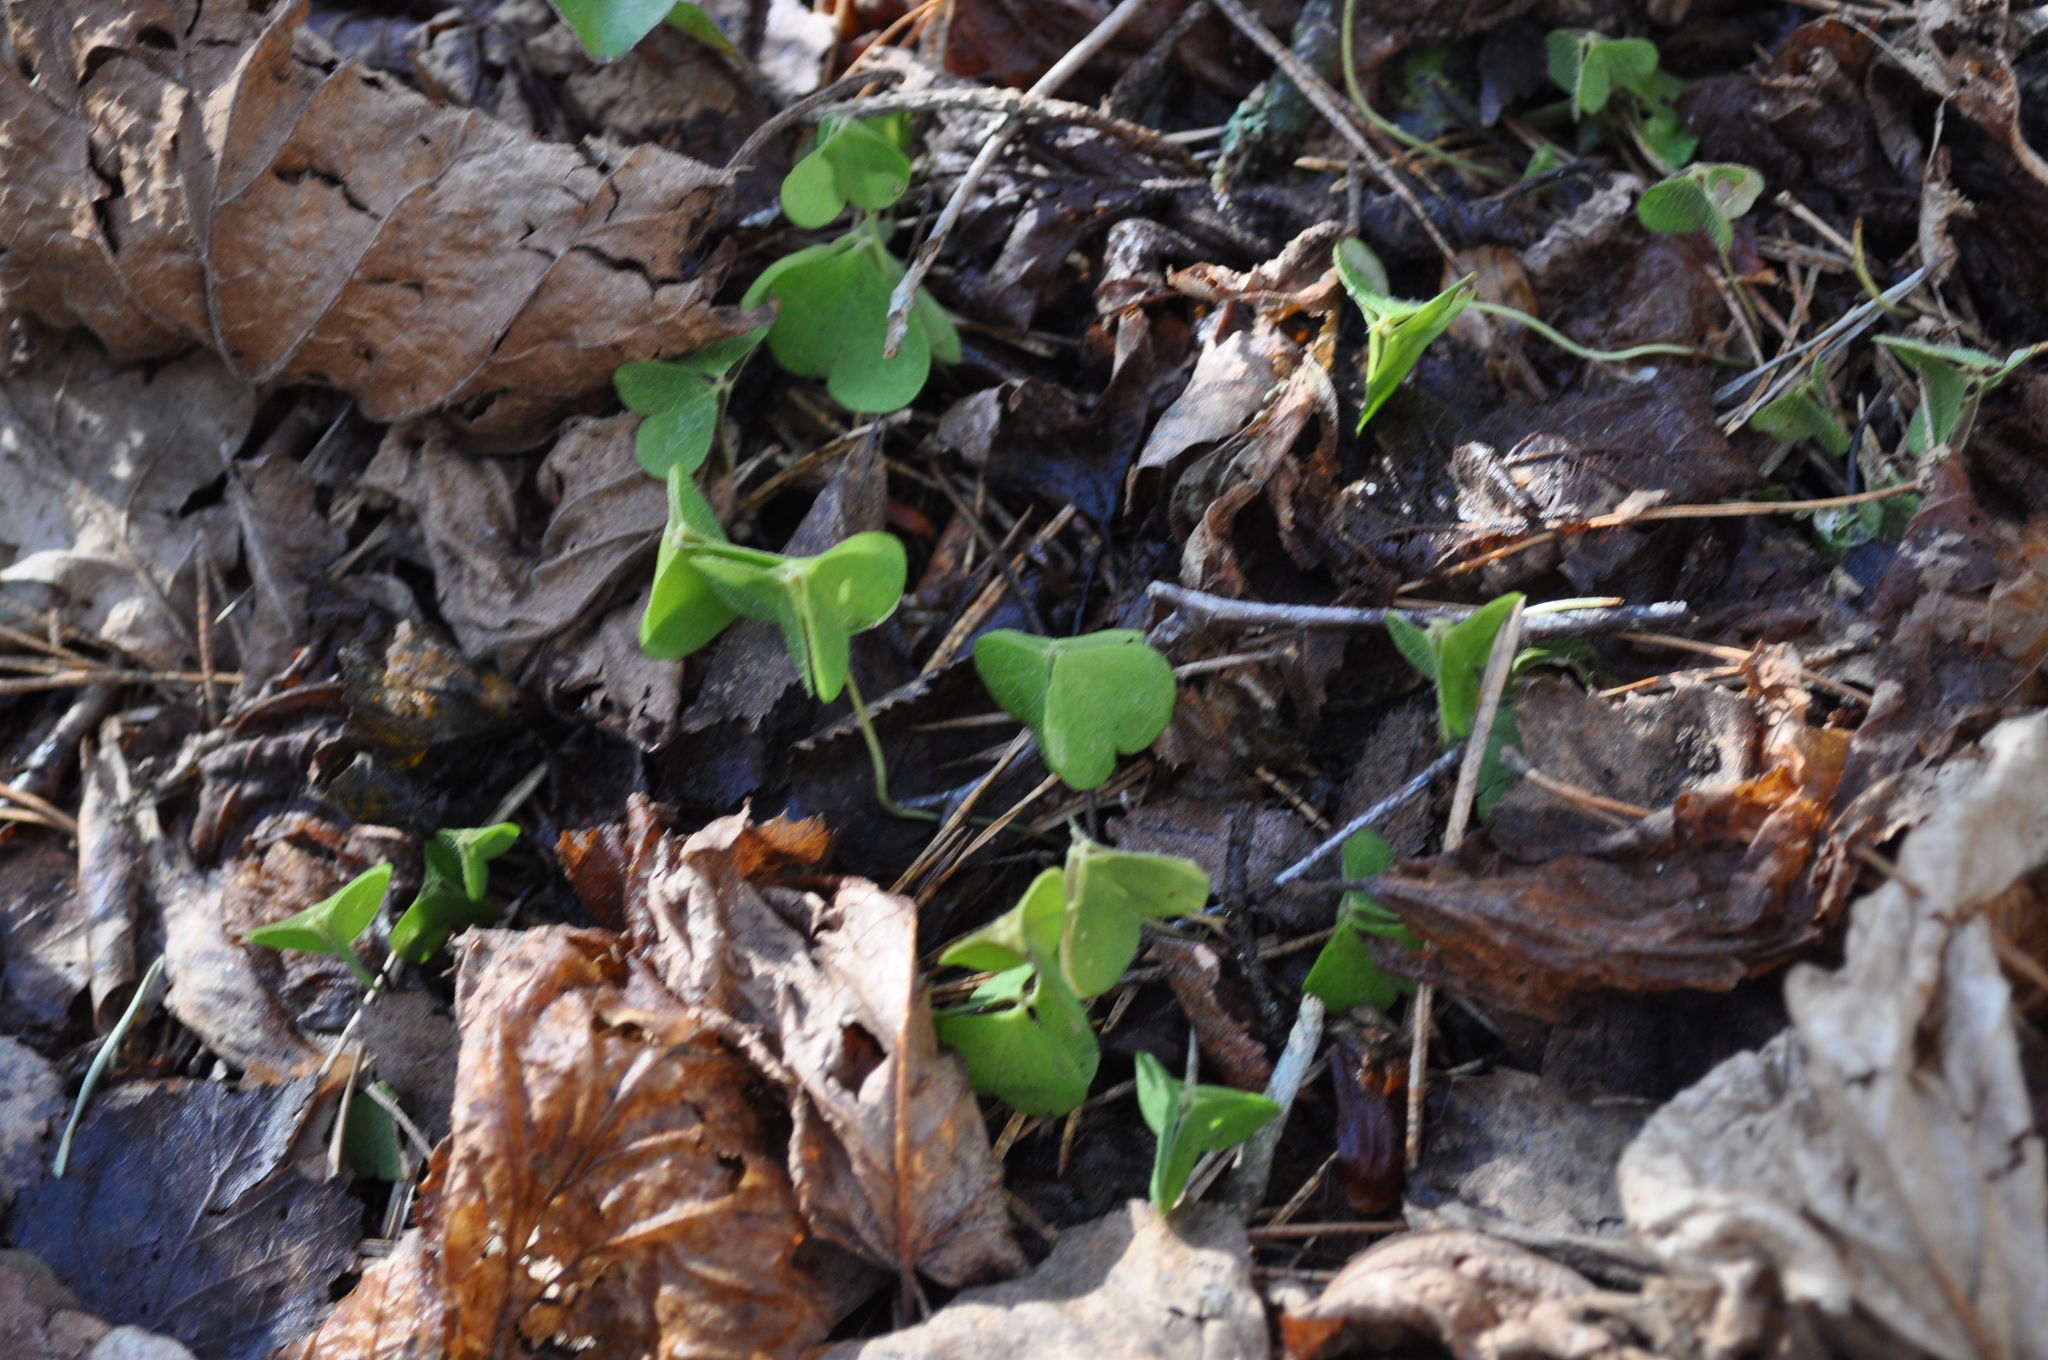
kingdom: Plantae
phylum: Tracheophyta
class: Magnoliopsida
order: Oxalidales
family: Oxalidaceae
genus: Oxalis
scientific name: Oxalis acetosella
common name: Wood-sorrel
